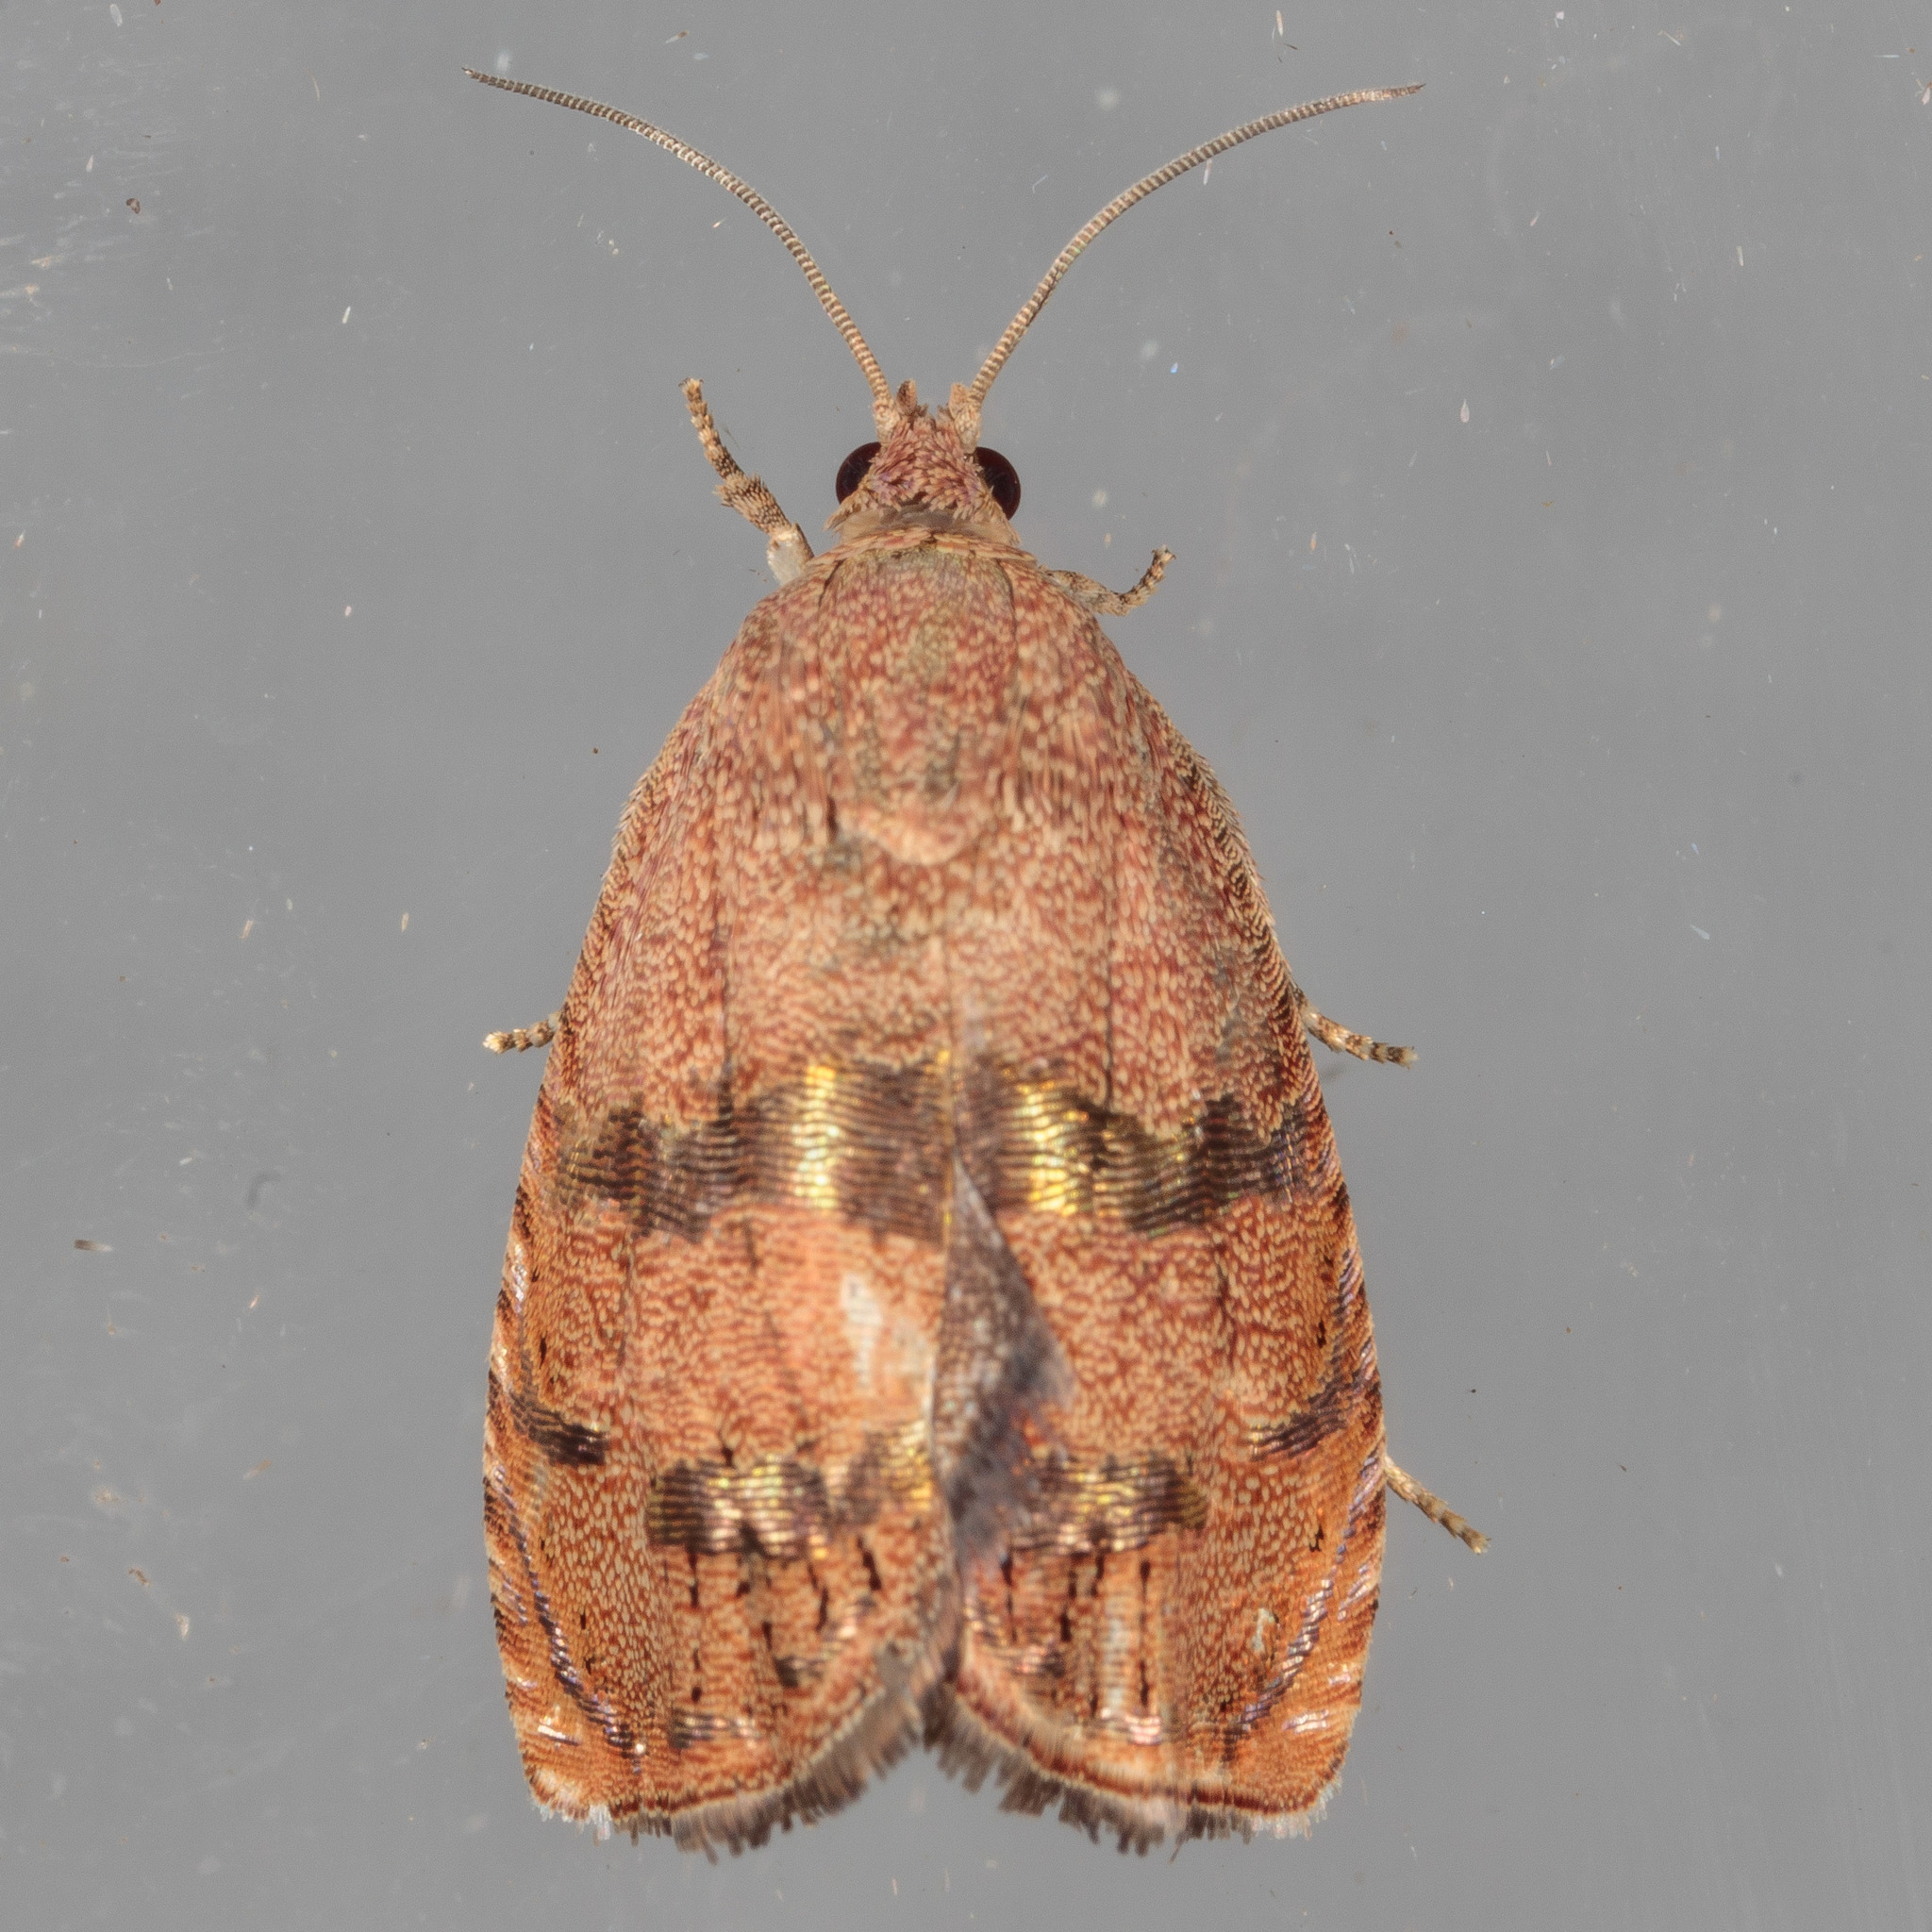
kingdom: Animalia
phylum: Arthropoda
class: Insecta
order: Lepidoptera
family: Tortricidae
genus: Cydia
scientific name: Cydia latiferreana
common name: Filbertworm moth
